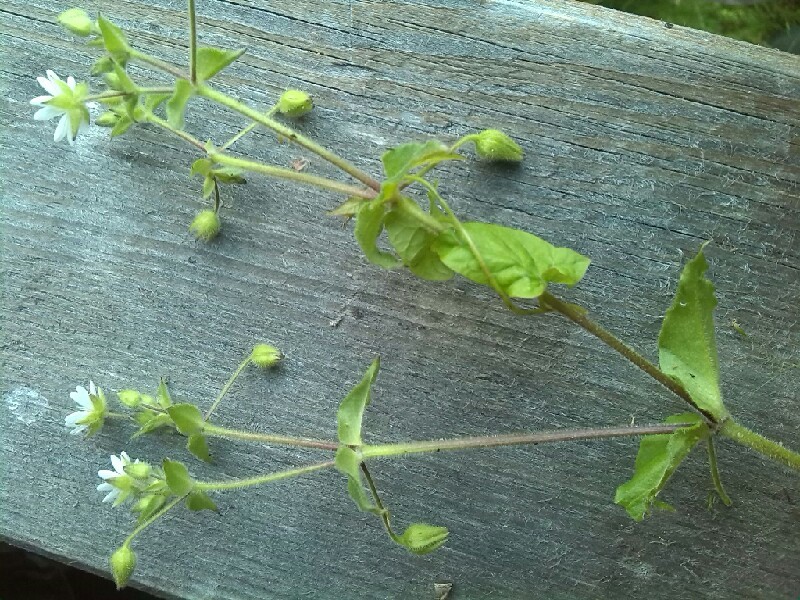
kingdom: Plantae
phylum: Tracheophyta
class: Magnoliopsida
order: Caryophyllales
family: Caryophyllaceae
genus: Stellaria
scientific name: Stellaria aquatica
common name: Water chickweed
